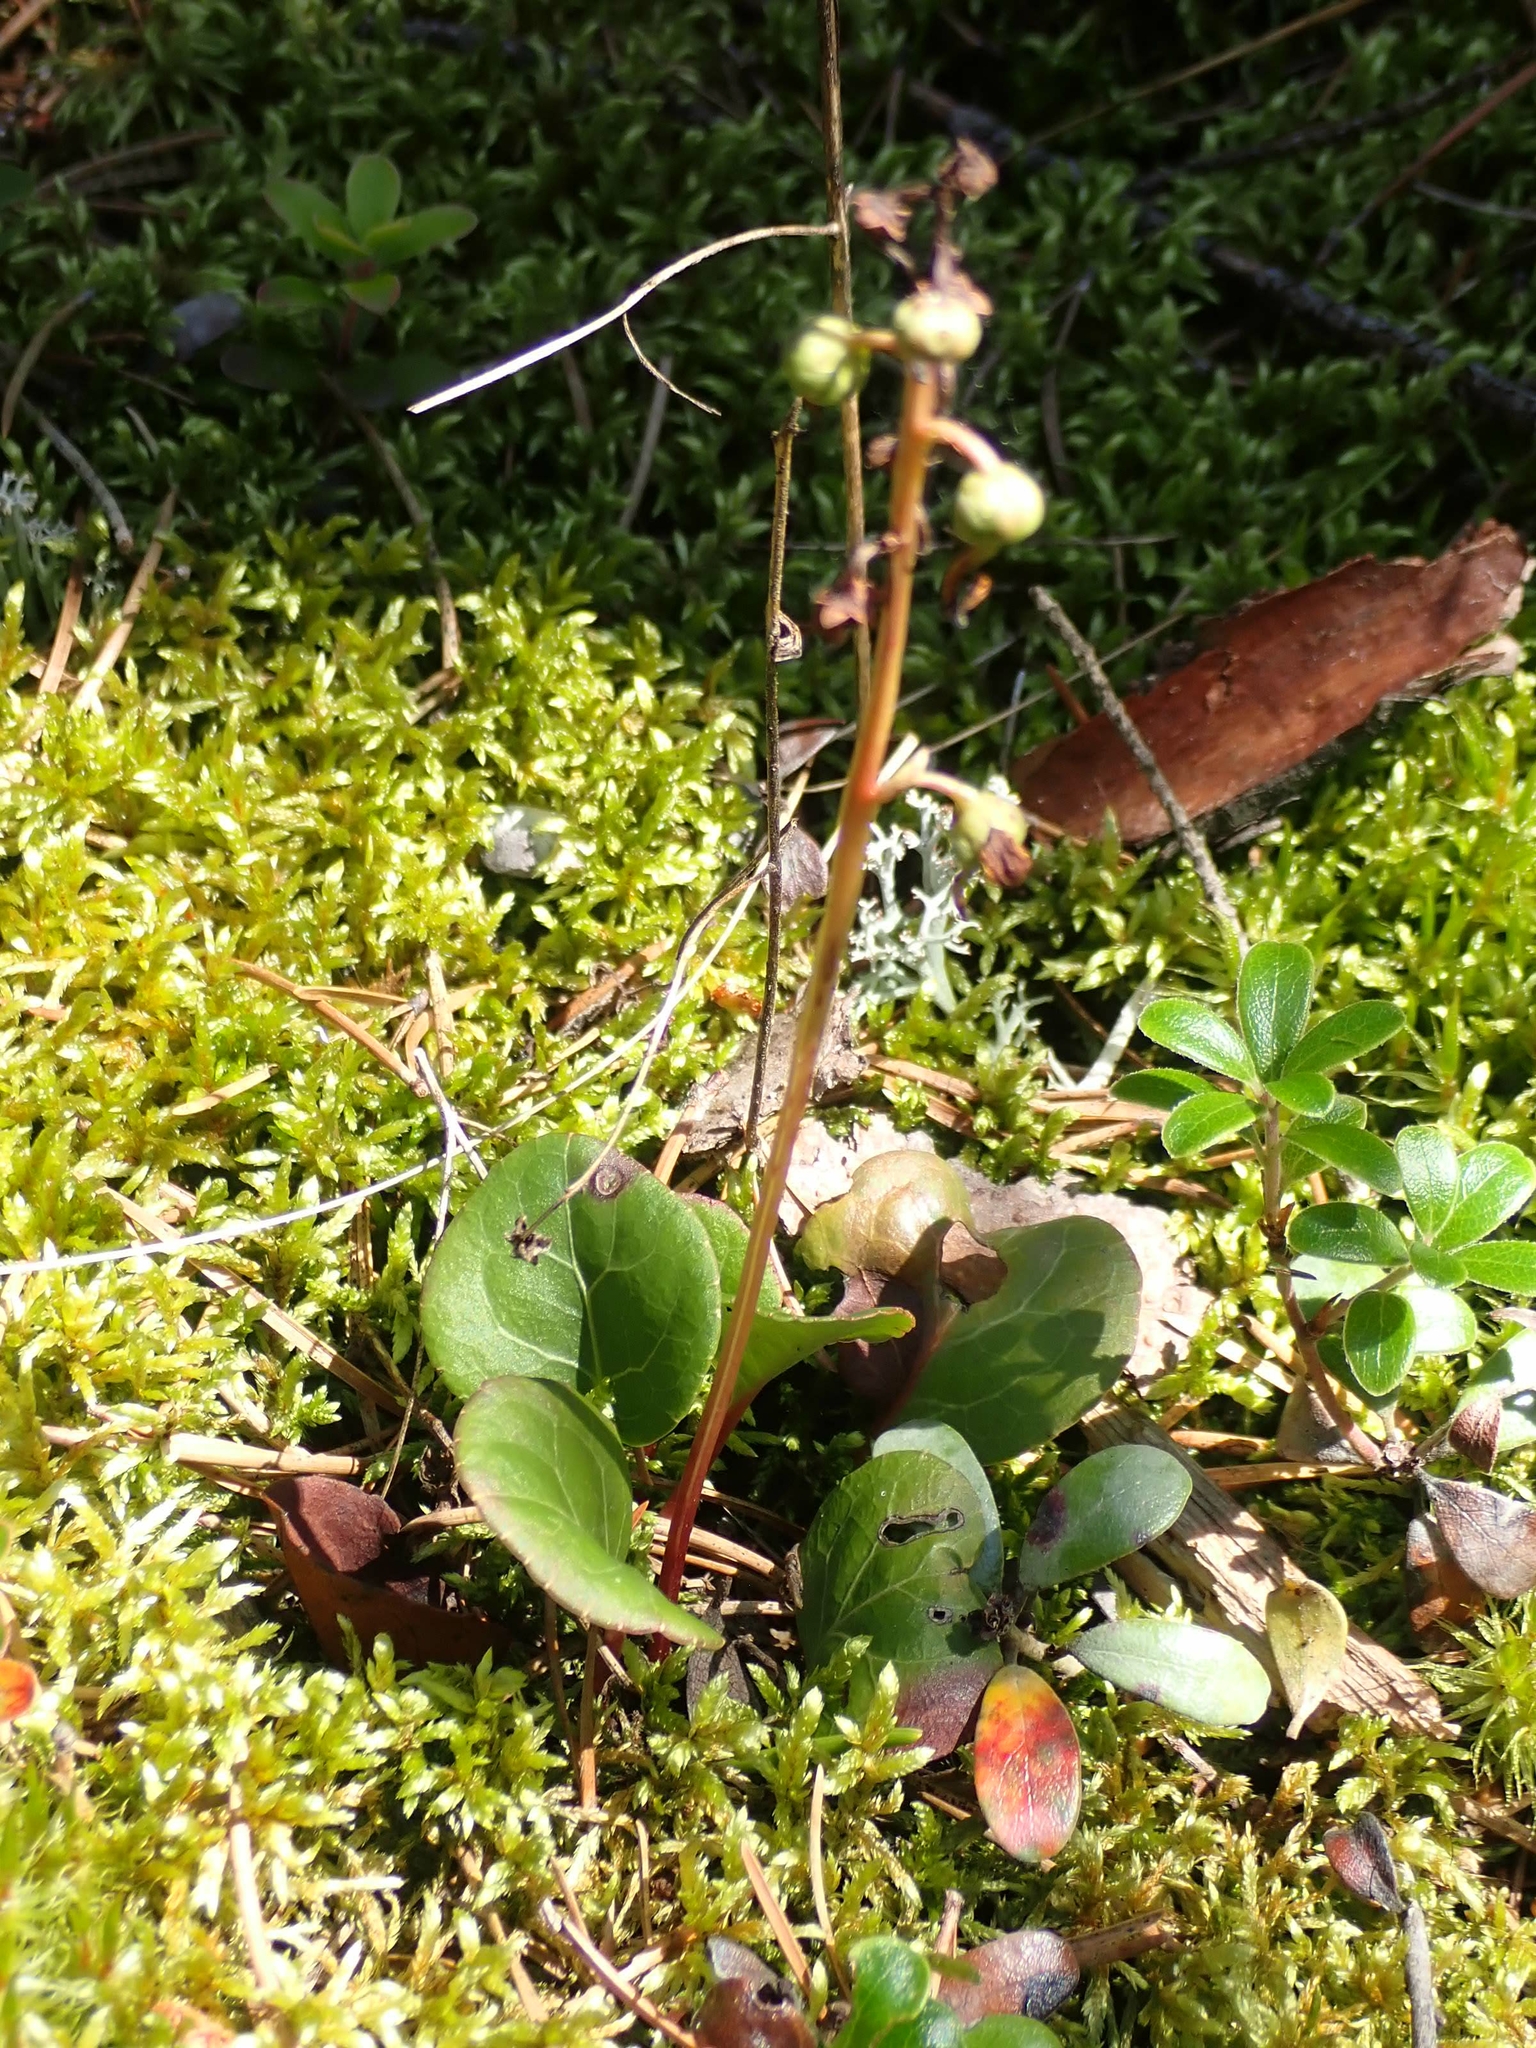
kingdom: Plantae
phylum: Tracheophyta
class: Magnoliopsida
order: Ericales
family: Ericaceae
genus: Pyrola
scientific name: Pyrola chlorantha
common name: Green wintergreen
